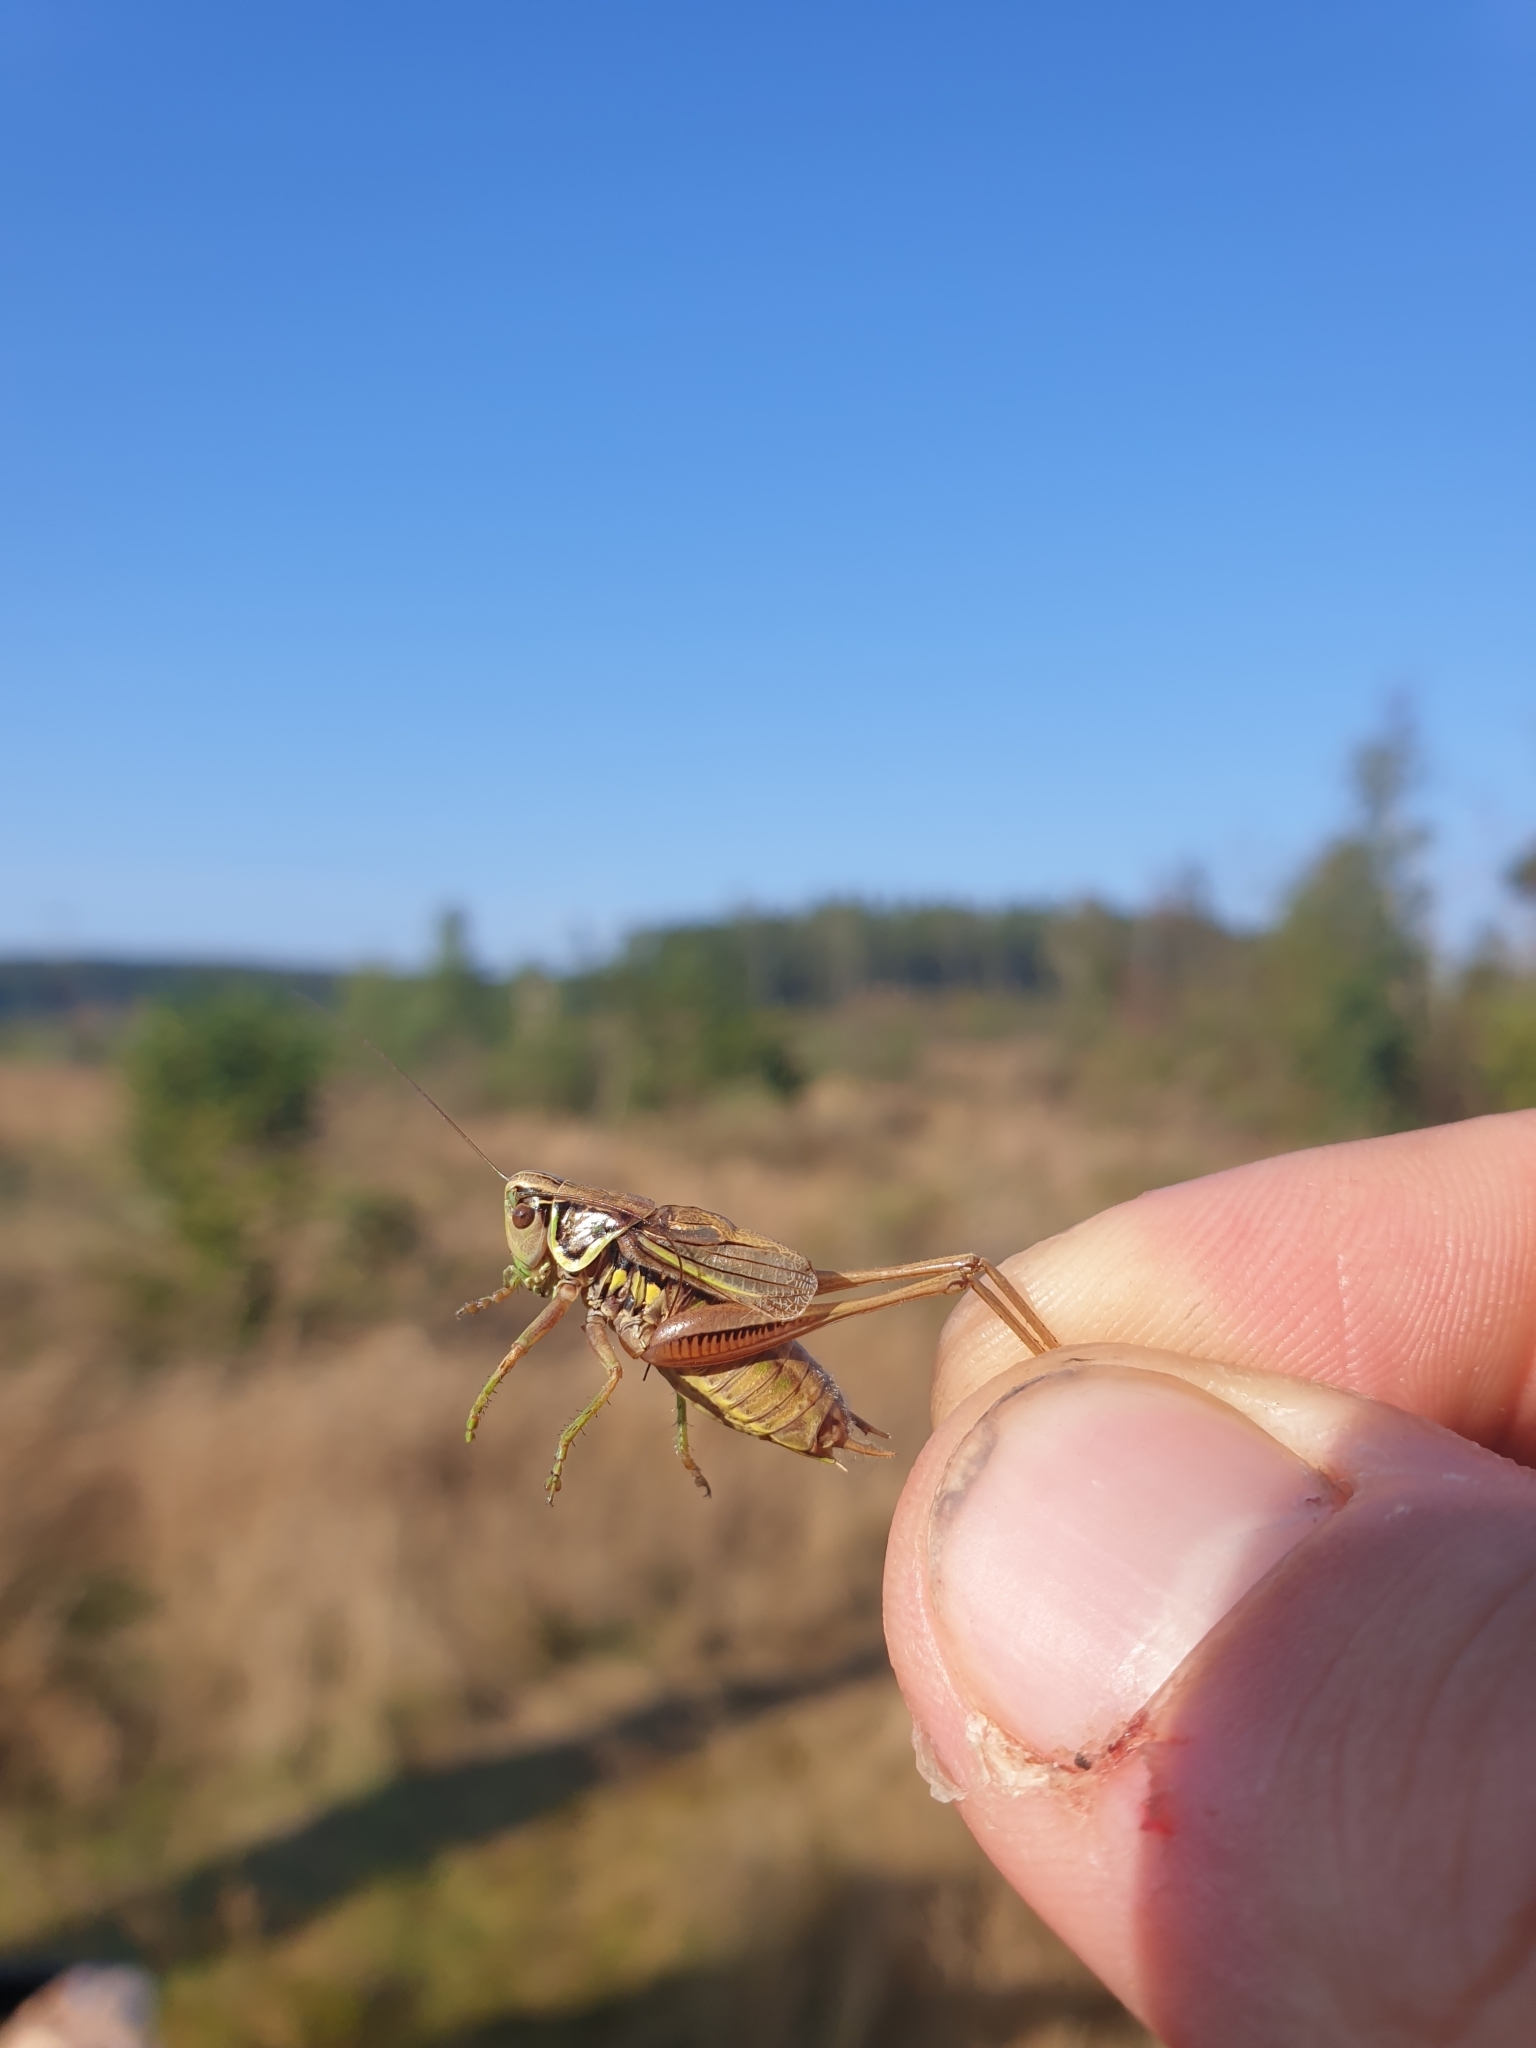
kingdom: Animalia
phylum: Arthropoda
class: Insecta
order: Orthoptera
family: Tettigoniidae
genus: Roeseliana
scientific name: Roeseliana roeselii
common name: Roesel's bush cricket
